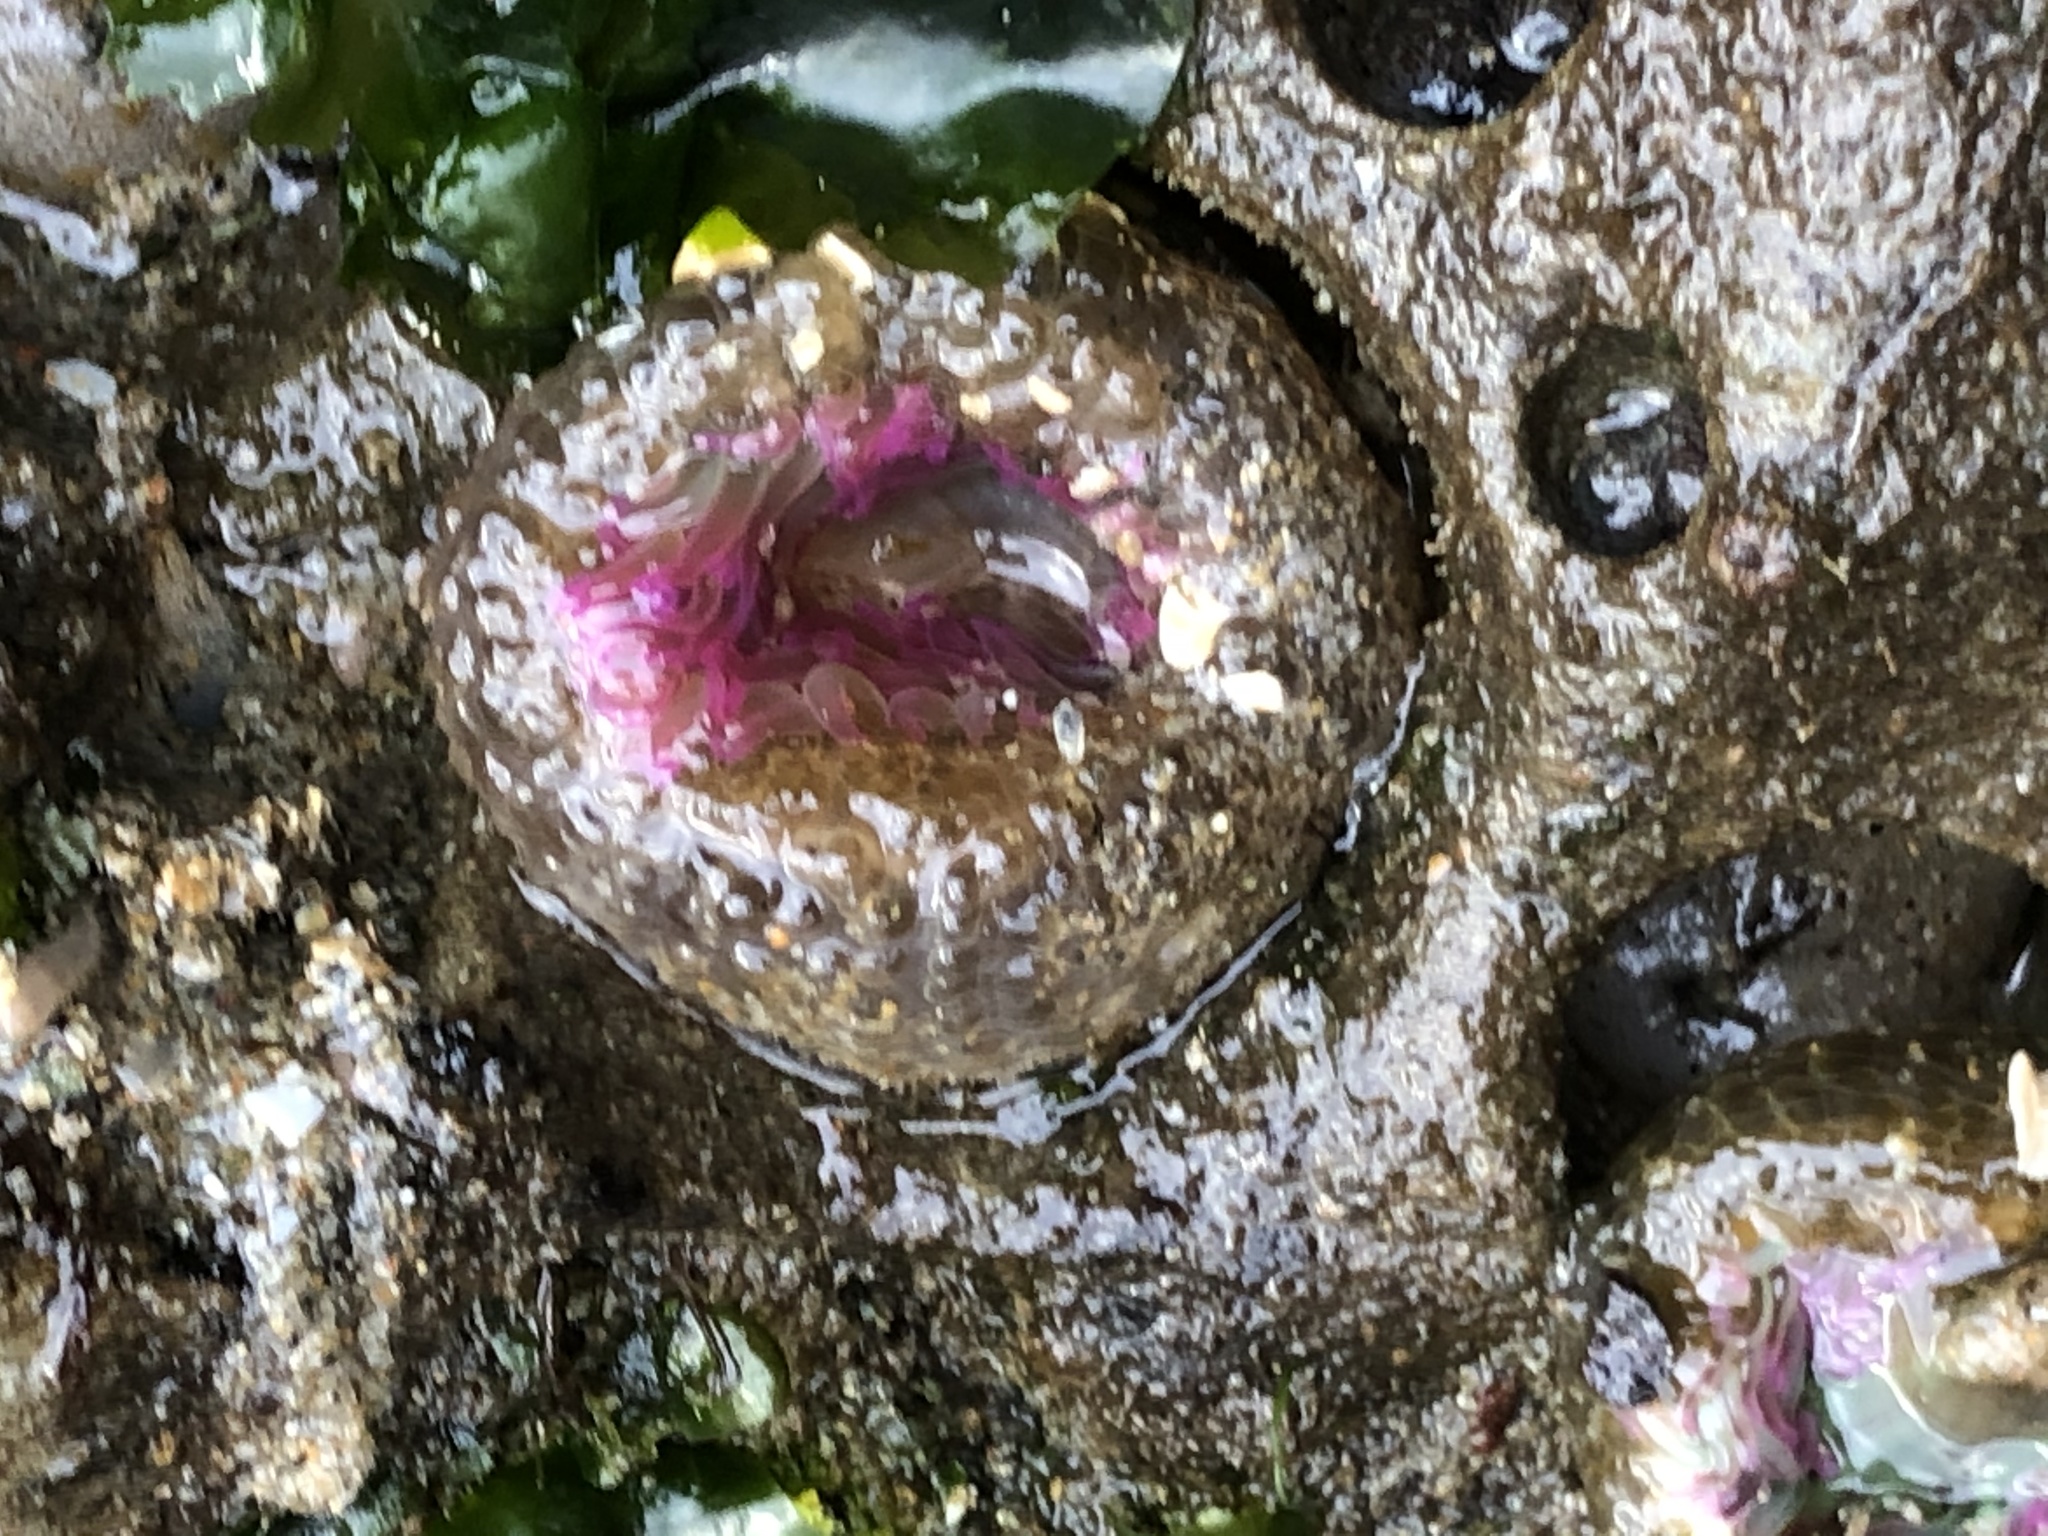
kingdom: Animalia
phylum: Cnidaria
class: Anthozoa
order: Actiniaria
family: Actiniidae
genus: Anthopleura
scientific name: Anthopleura elegantissima
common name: Clonal anemone
